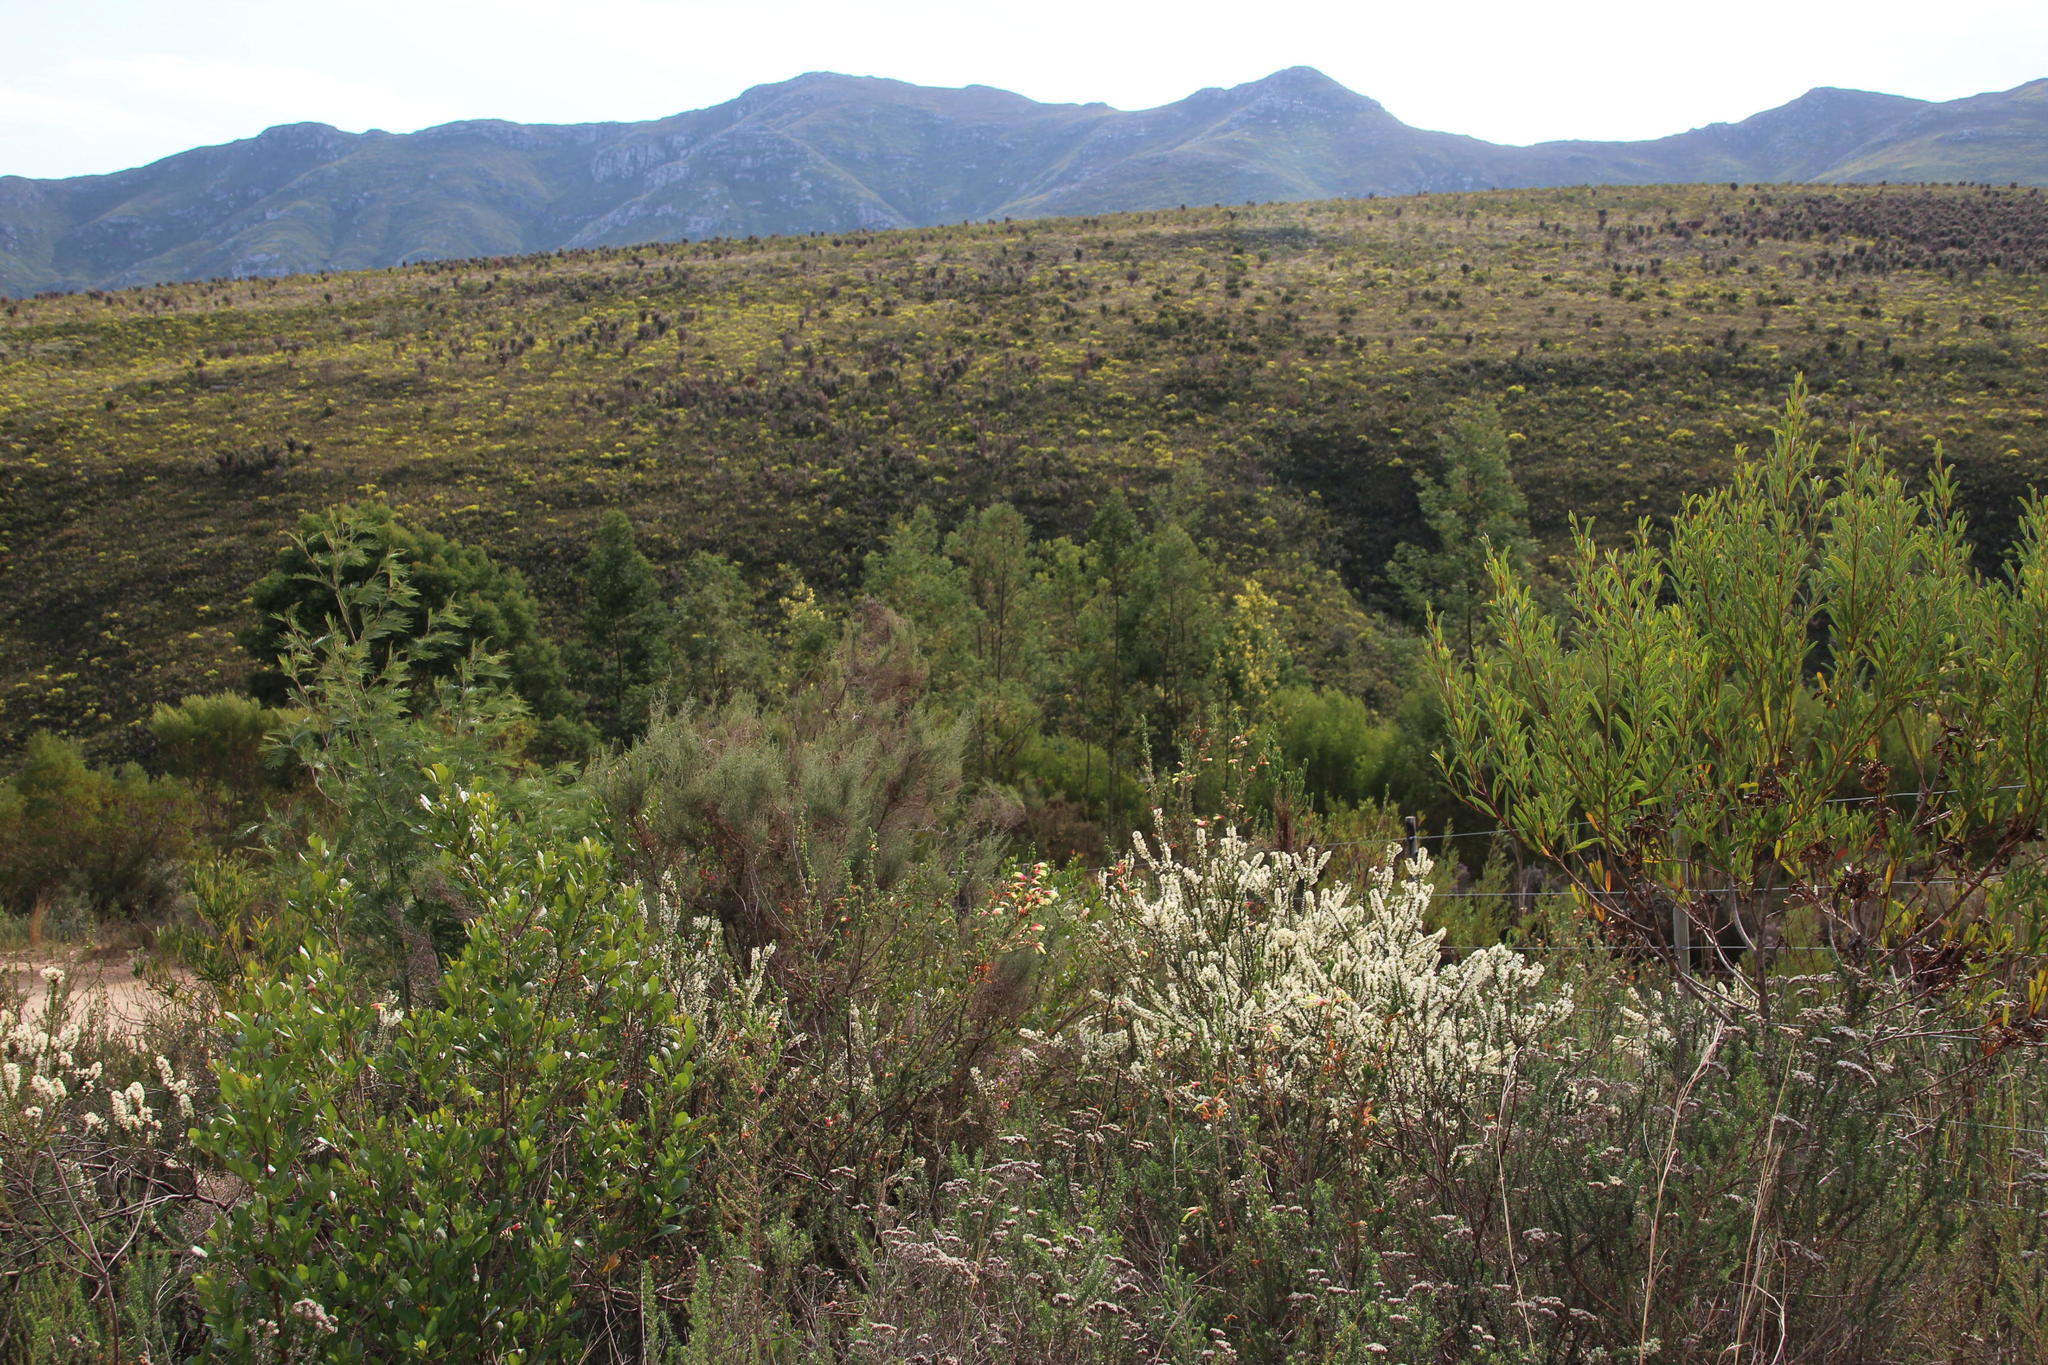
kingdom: Plantae
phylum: Tracheophyta
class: Magnoliopsida
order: Malvales
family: Thymelaeaceae
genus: Struthiola
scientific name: Struthiola hirsuta
